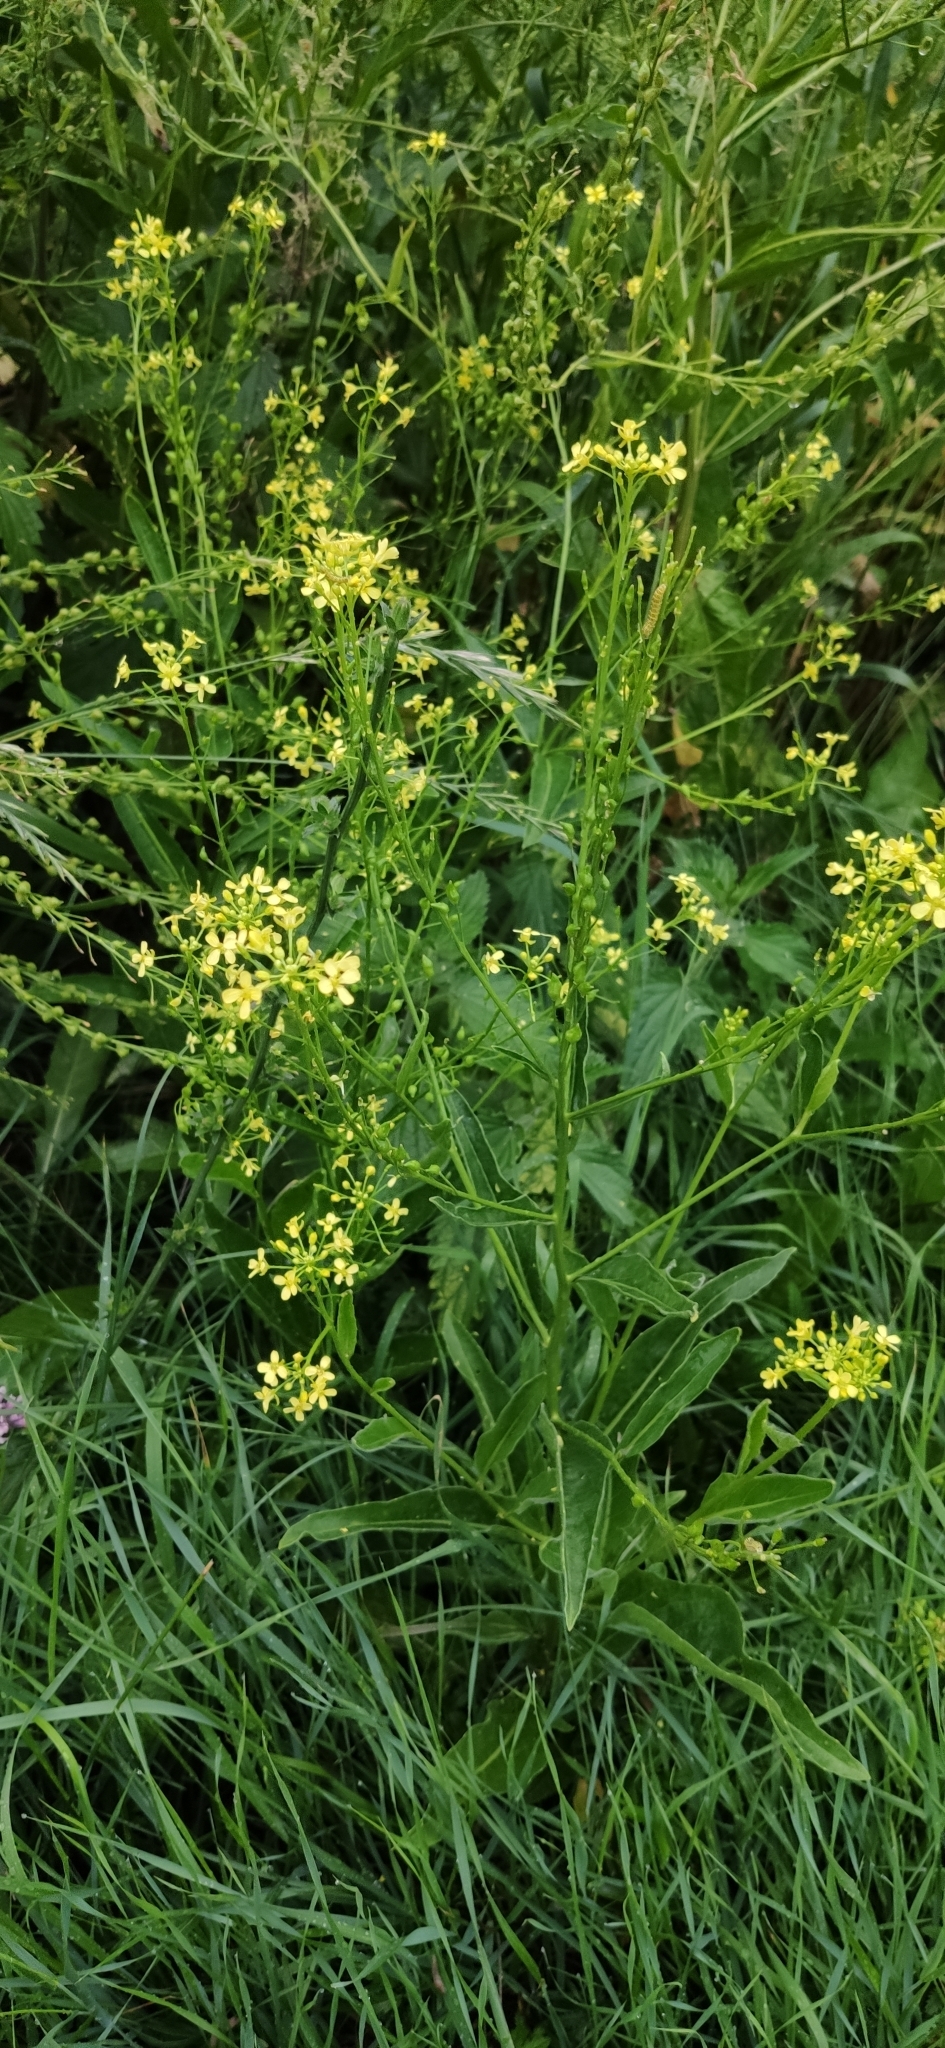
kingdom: Plantae
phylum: Tracheophyta
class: Magnoliopsida
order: Brassicales
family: Brassicaceae
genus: Bunias
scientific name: Bunias orientalis
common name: Warty-cabbage
